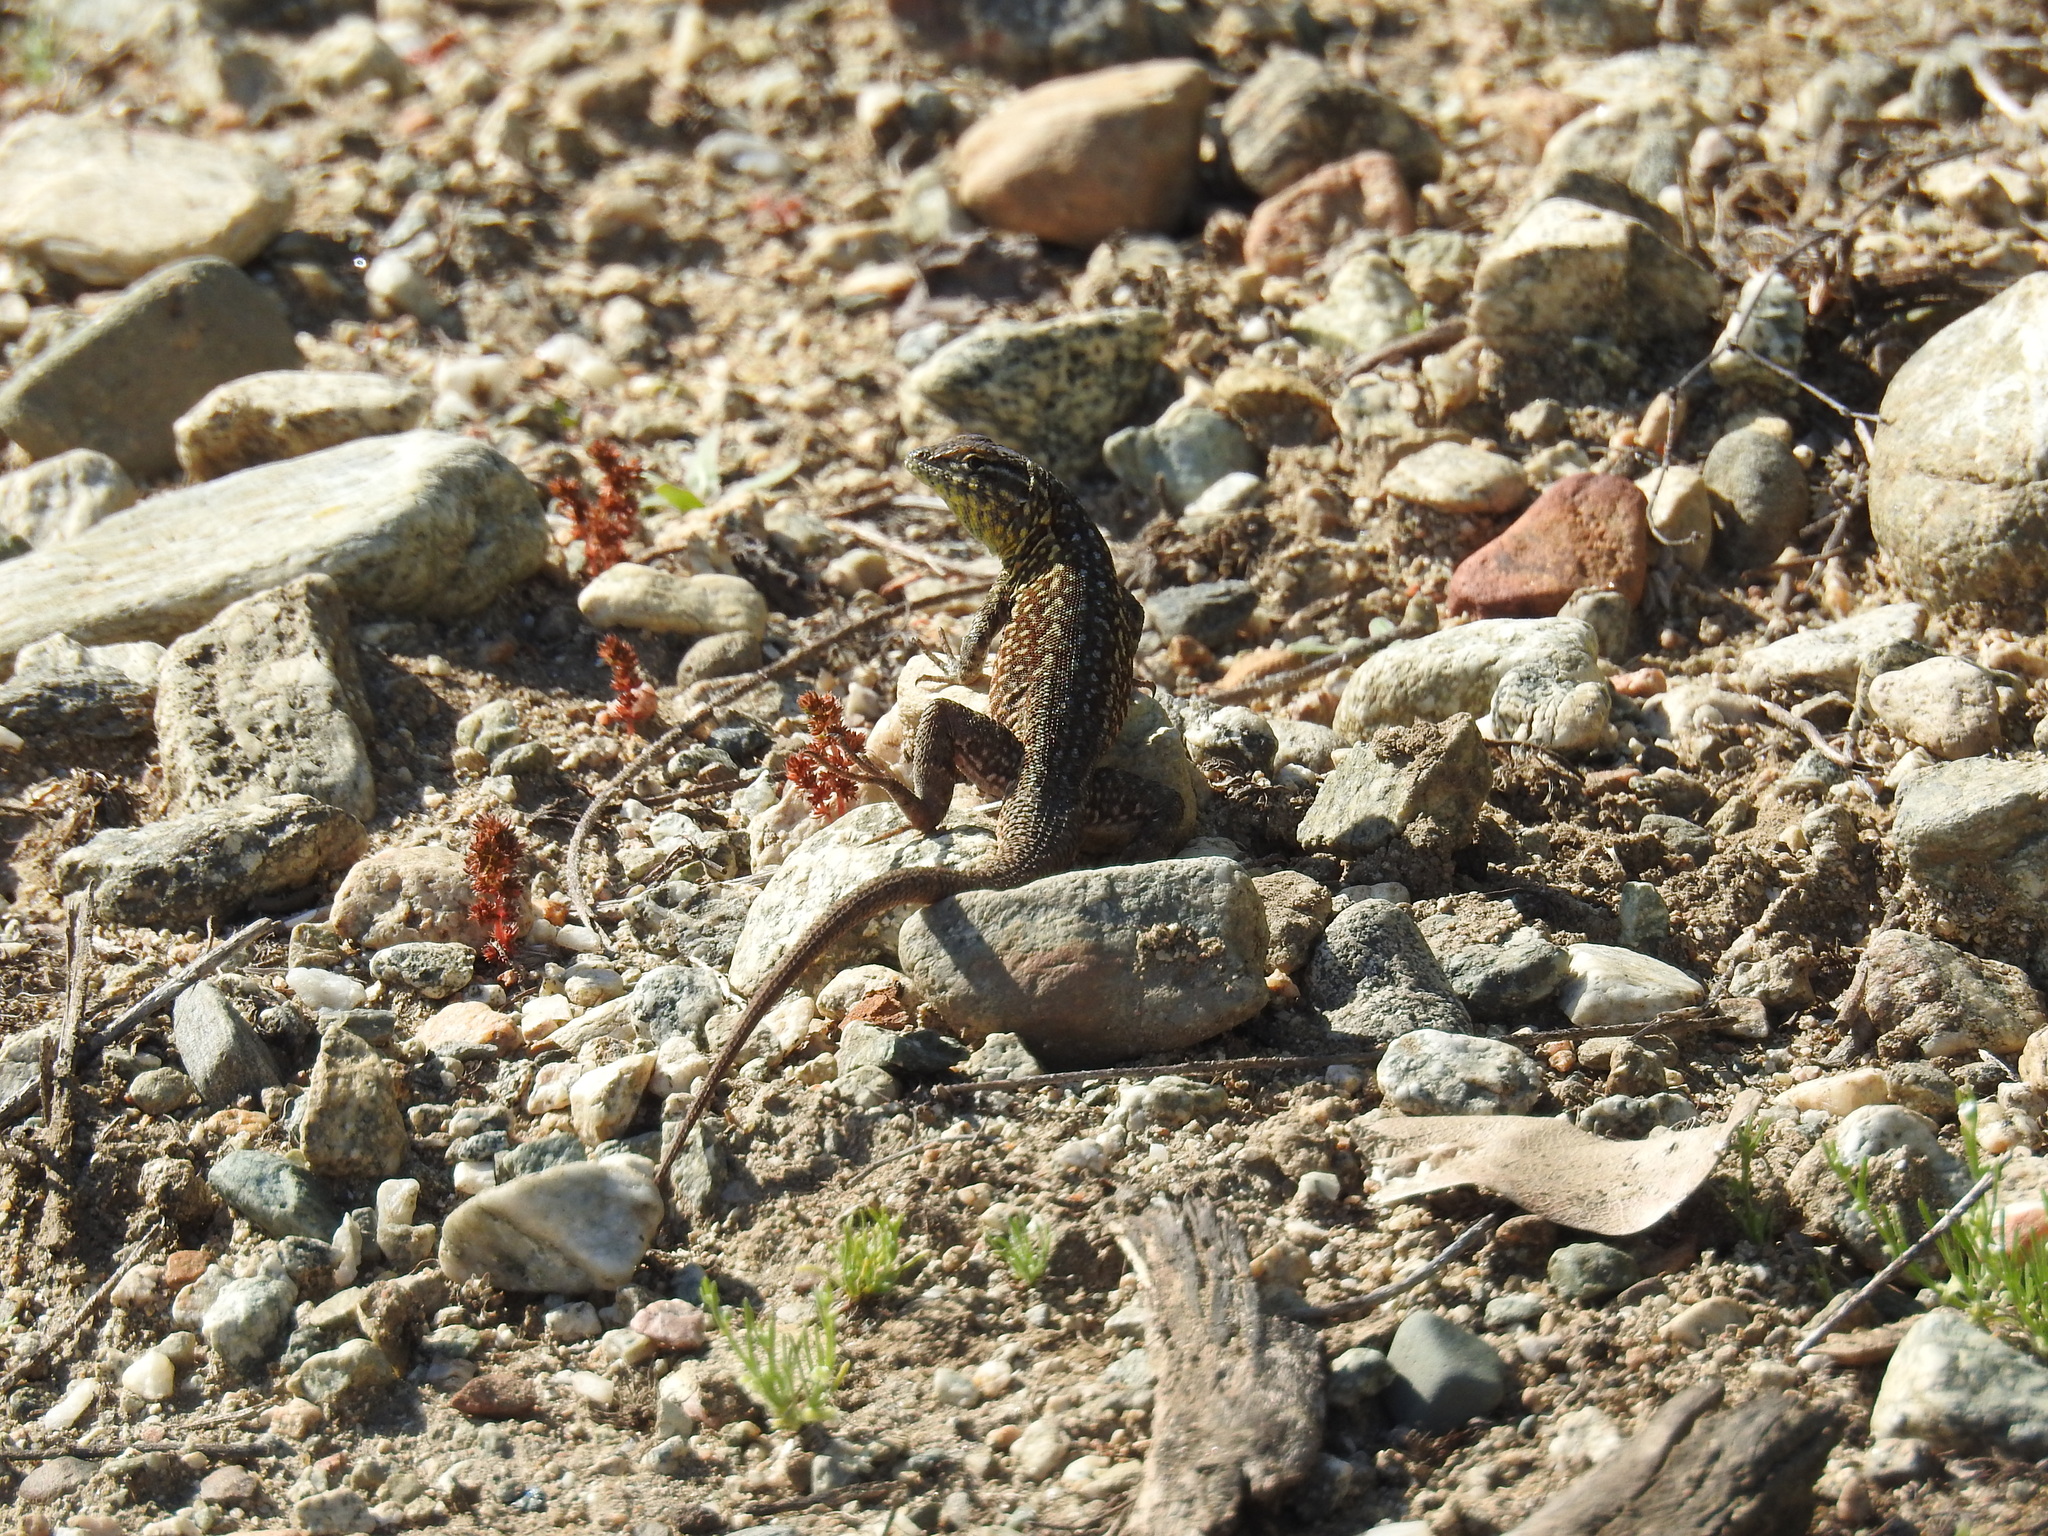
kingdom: Animalia
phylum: Chordata
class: Squamata
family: Phrynosomatidae
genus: Uta
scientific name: Uta stansburiana
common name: Side-blotched lizard
